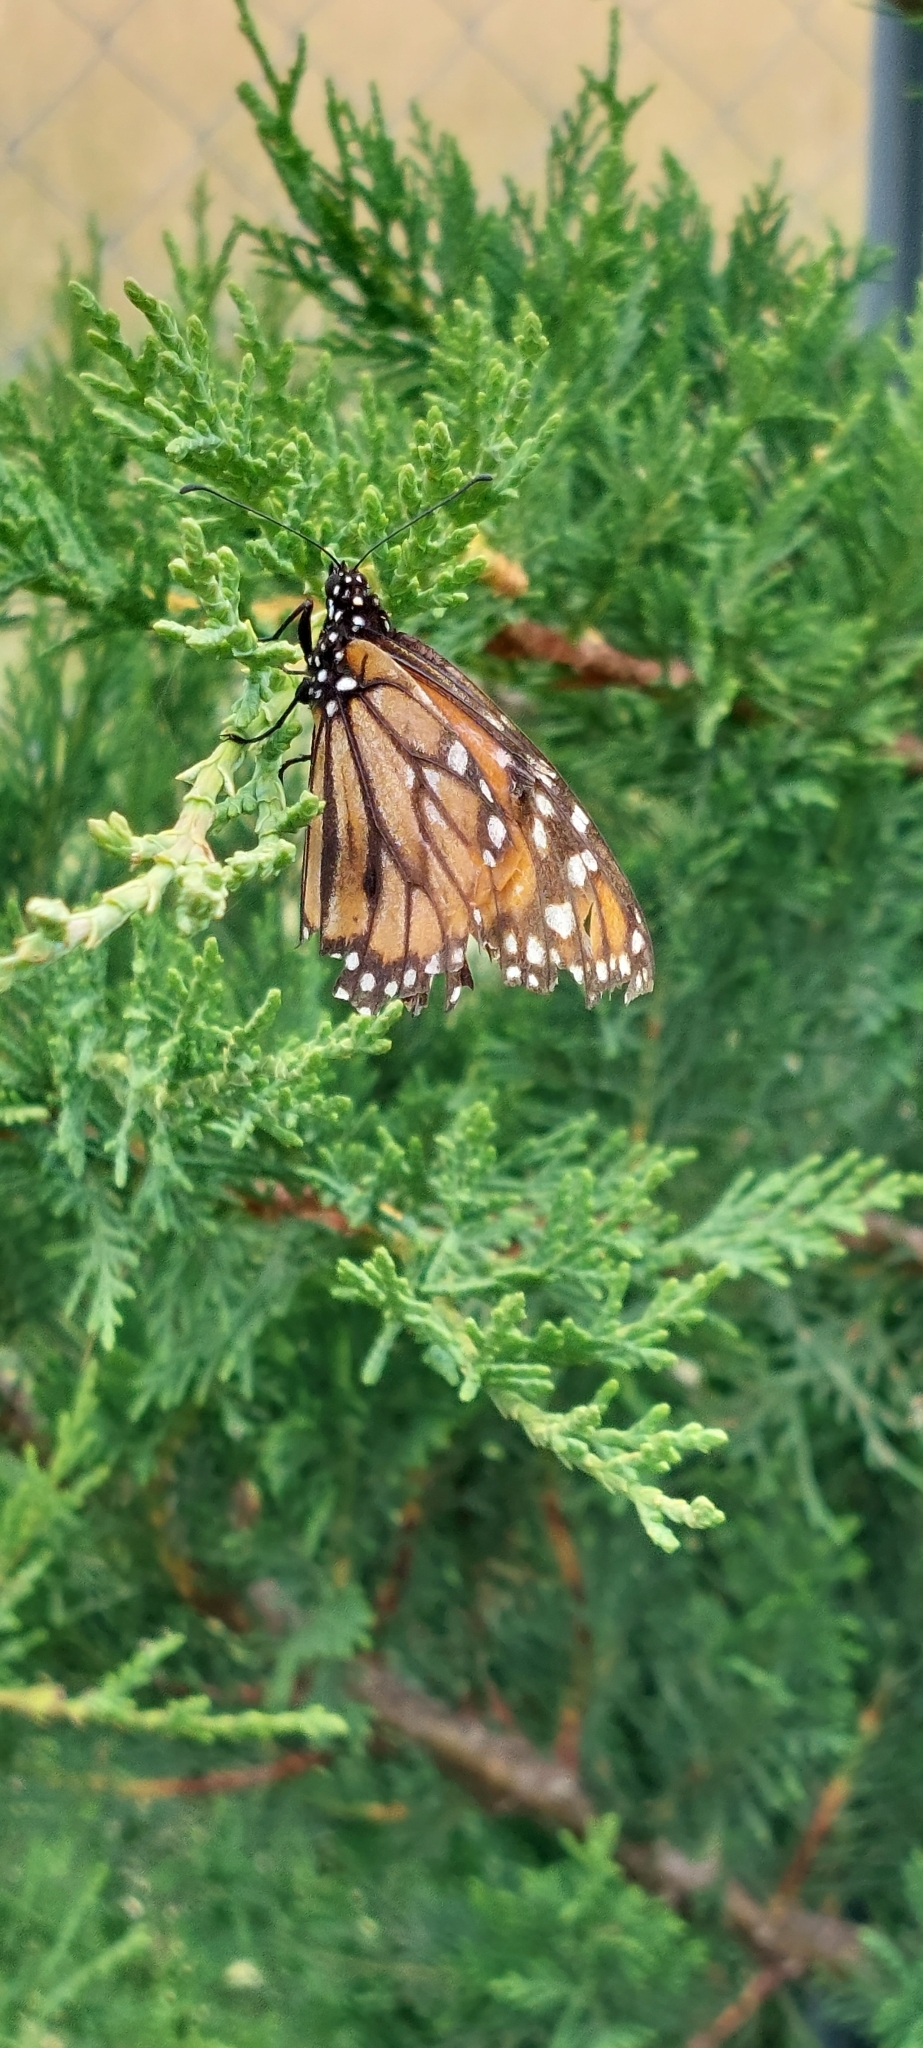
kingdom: Animalia
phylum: Arthropoda
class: Insecta
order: Lepidoptera
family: Nymphalidae
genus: Danaus
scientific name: Danaus erippus
